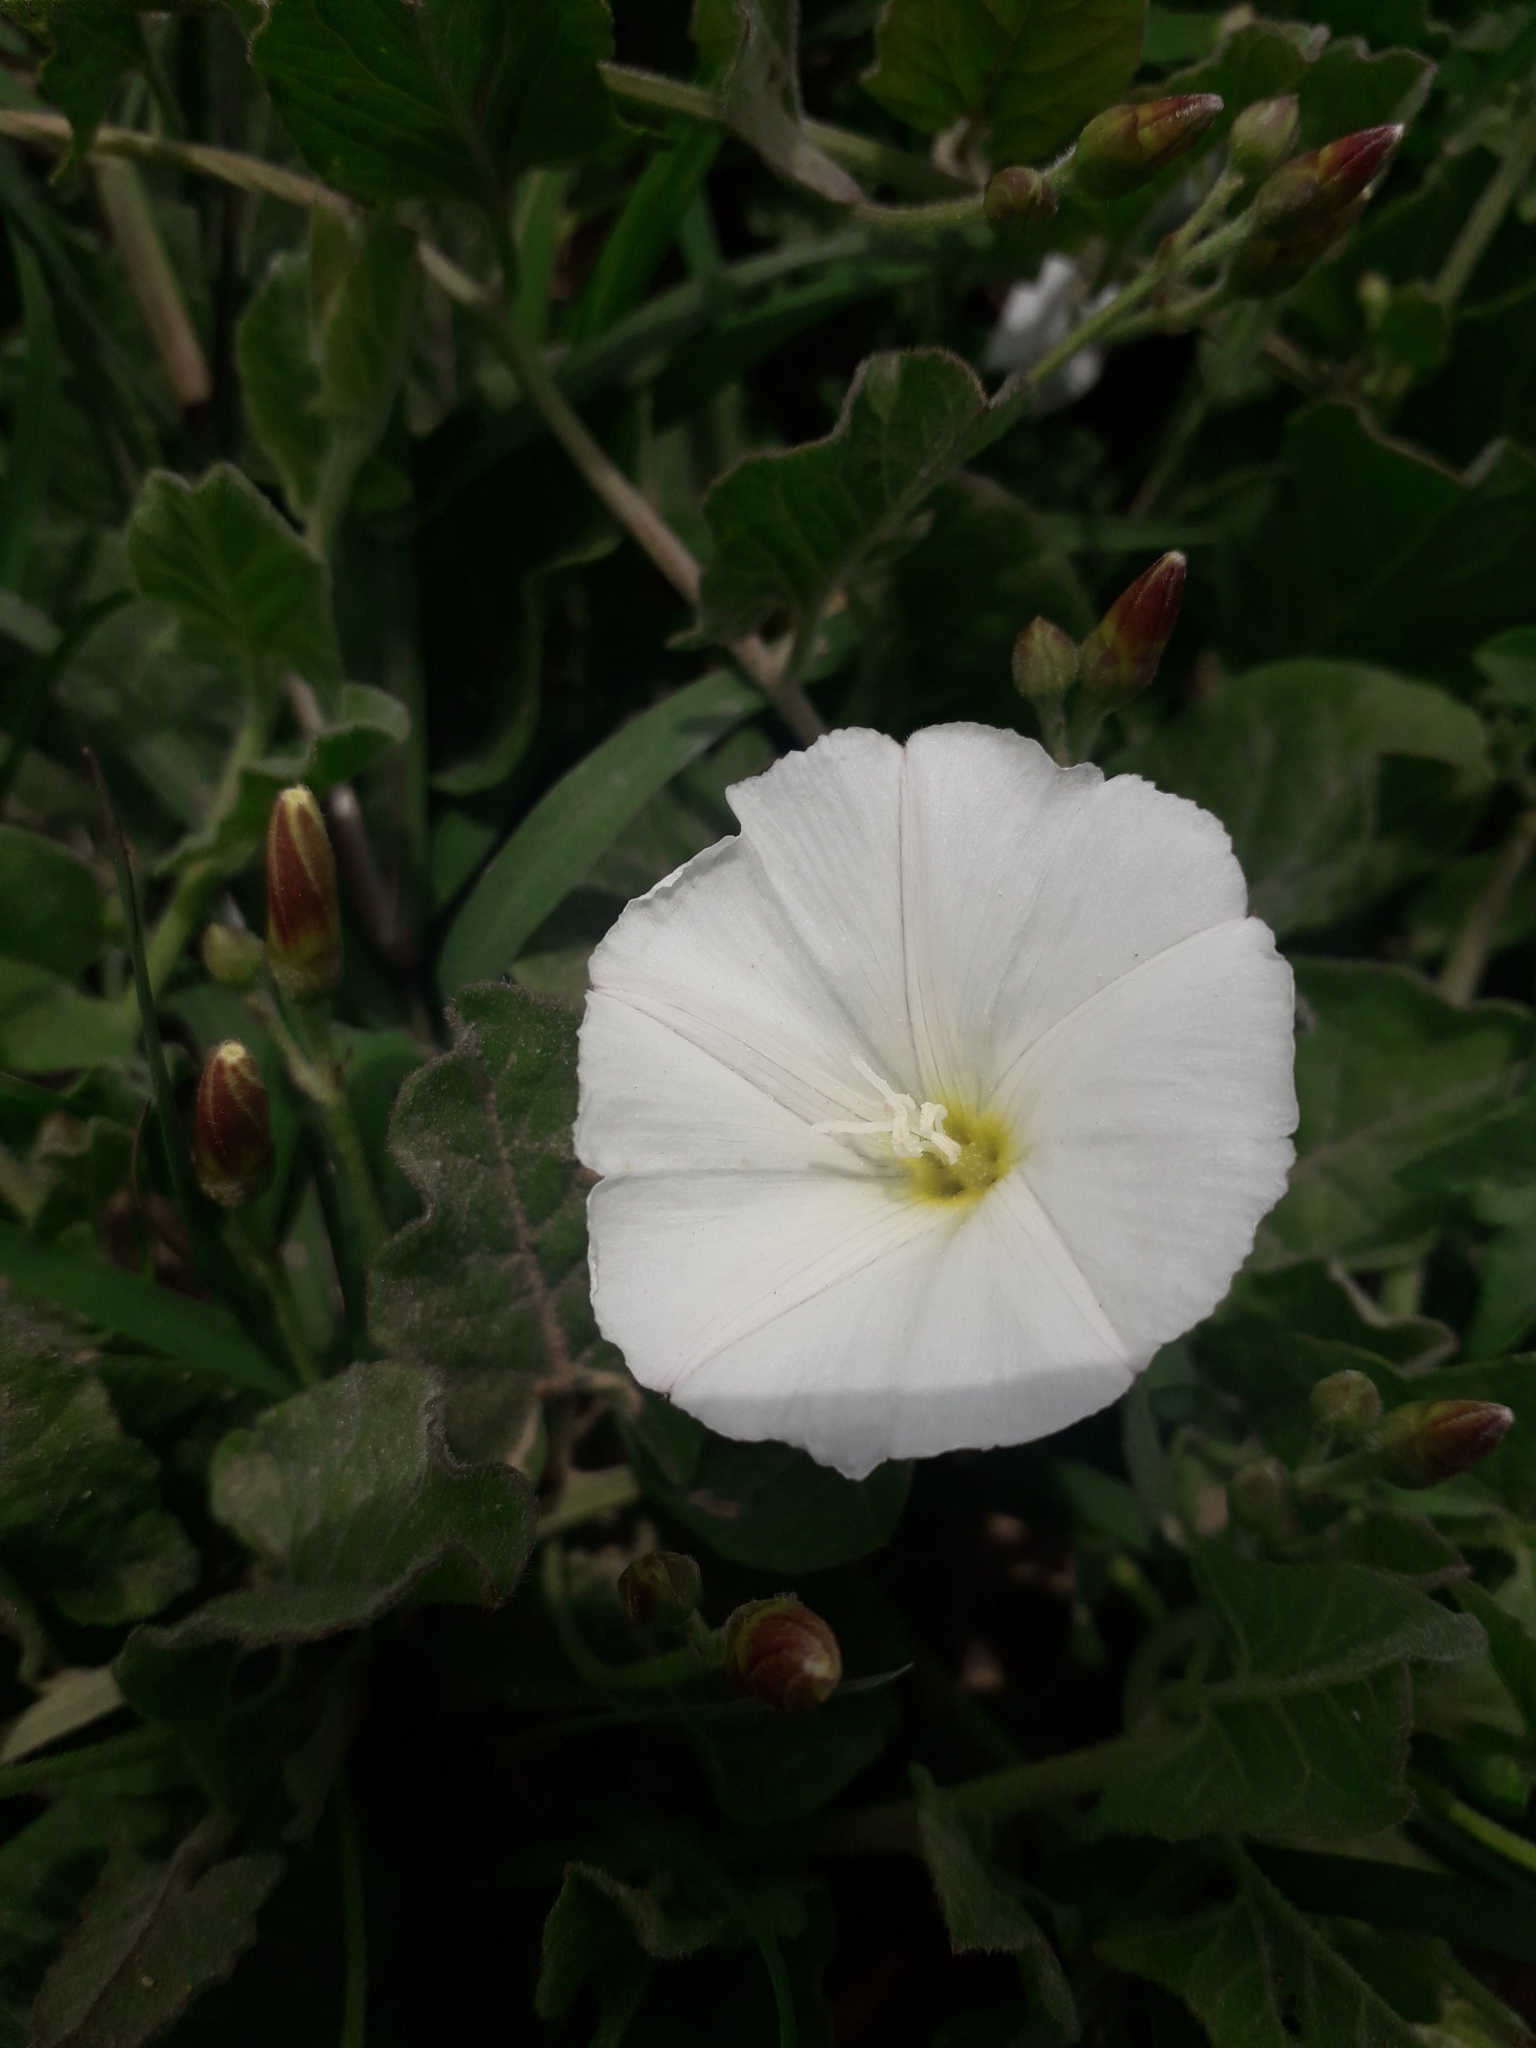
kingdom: Plantae
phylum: Tracheophyta
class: Magnoliopsida
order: Solanales
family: Convolvulaceae
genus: Convolvulus
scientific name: Convolvulus arvensis
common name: Field bindweed
